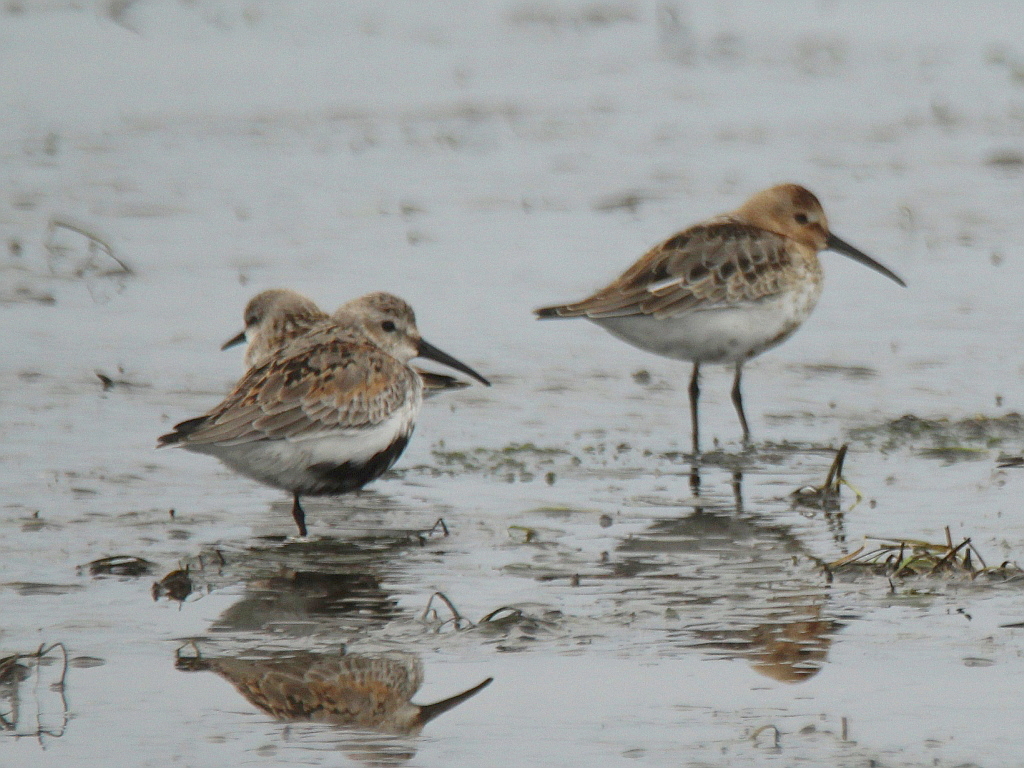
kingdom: Animalia
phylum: Chordata
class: Aves
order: Charadriiformes
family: Scolopacidae
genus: Calidris
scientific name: Calidris alpina
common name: Dunlin
